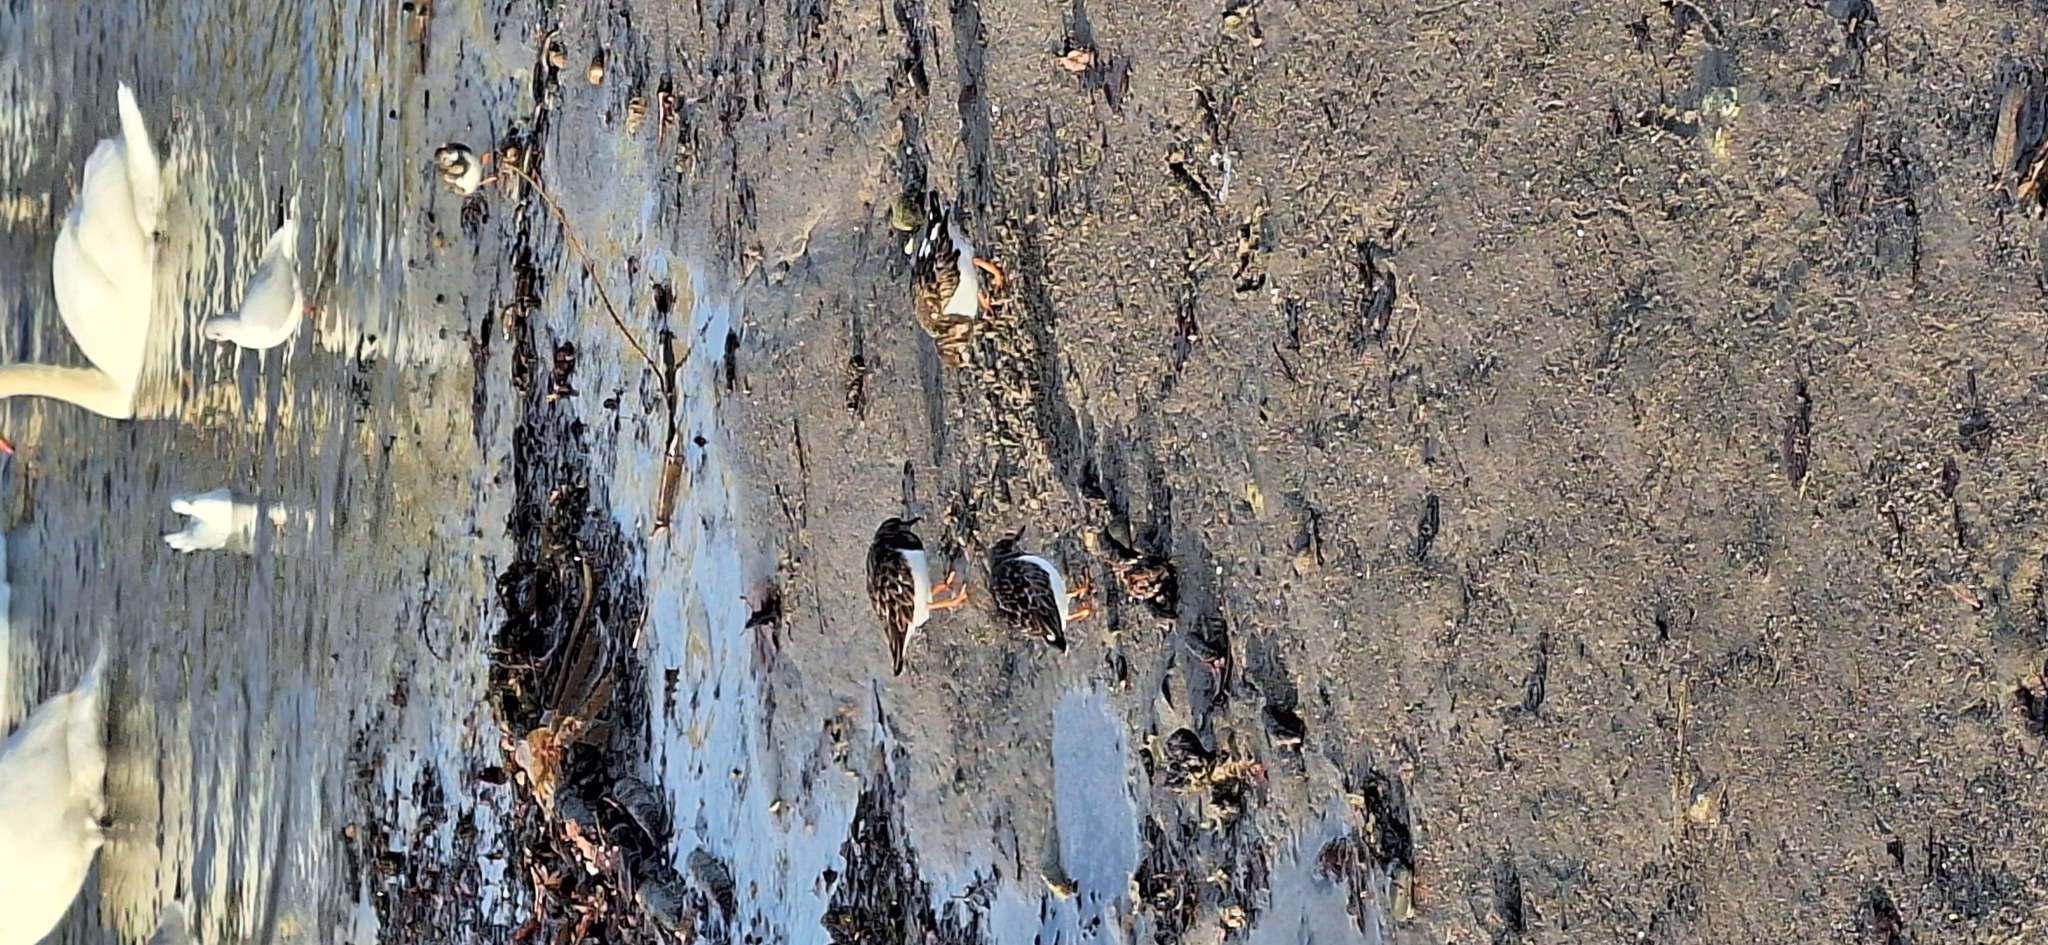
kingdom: Animalia
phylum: Chordata
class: Aves
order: Charadriiformes
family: Scolopacidae
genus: Arenaria
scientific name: Arenaria interpres
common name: Ruddy turnstone
